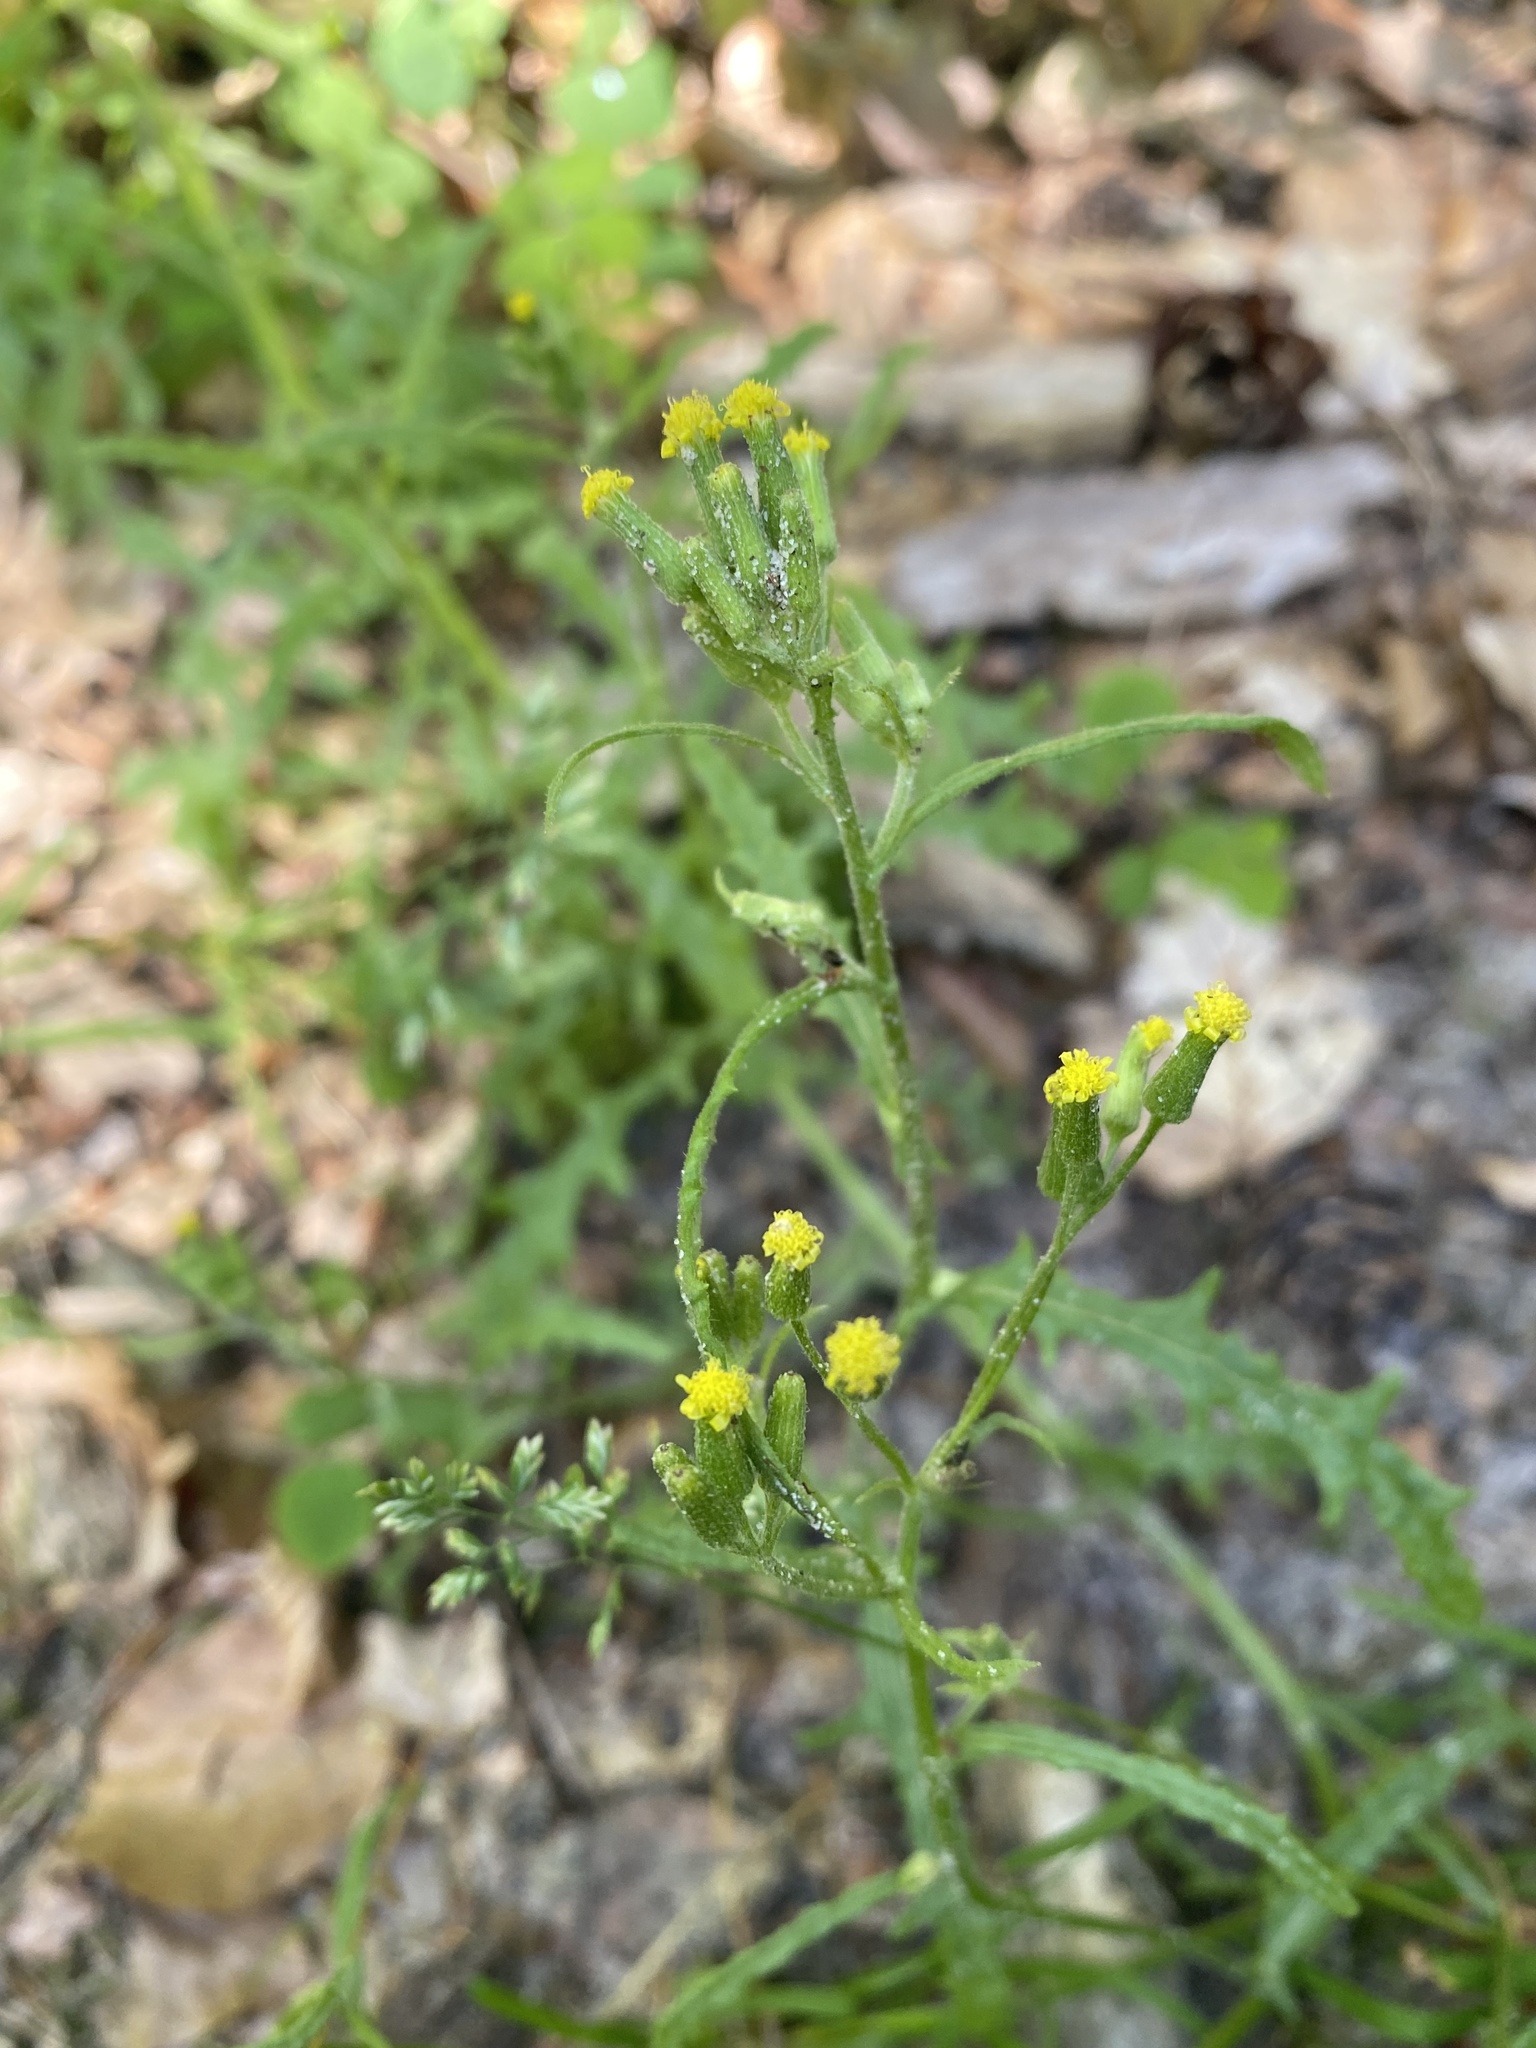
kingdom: Plantae
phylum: Tracheophyta
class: Magnoliopsida
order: Asterales
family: Asteraceae
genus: Senecio
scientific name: Senecio sylvaticus
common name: Woodland ragwort
